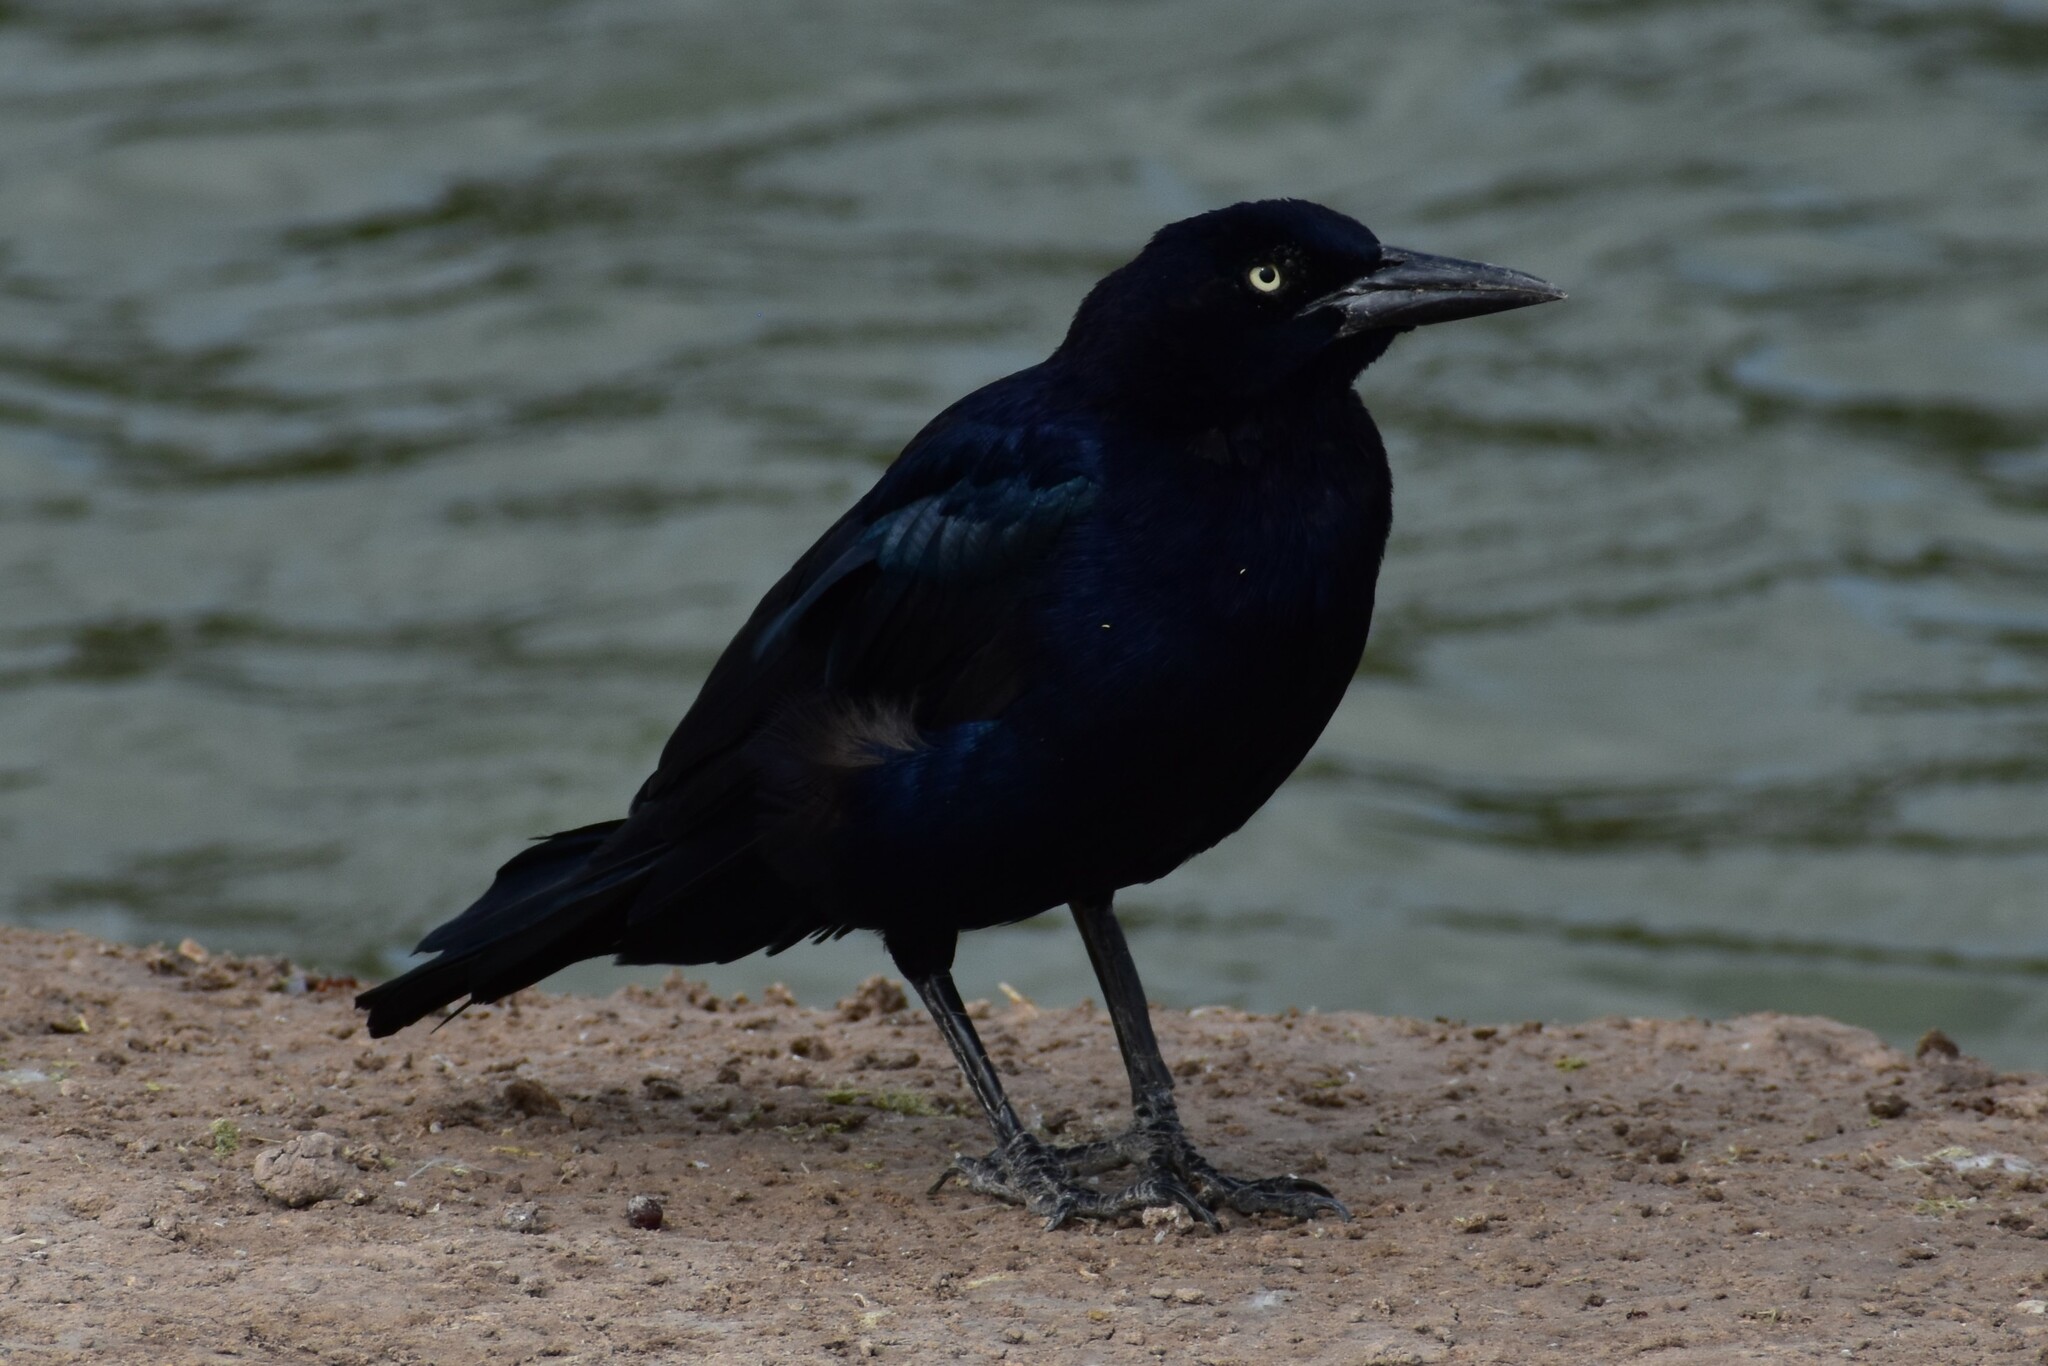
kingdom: Animalia
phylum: Chordata
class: Aves
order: Passeriformes
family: Icteridae
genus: Quiscalus
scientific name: Quiscalus mexicanus
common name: Great-tailed grackle
